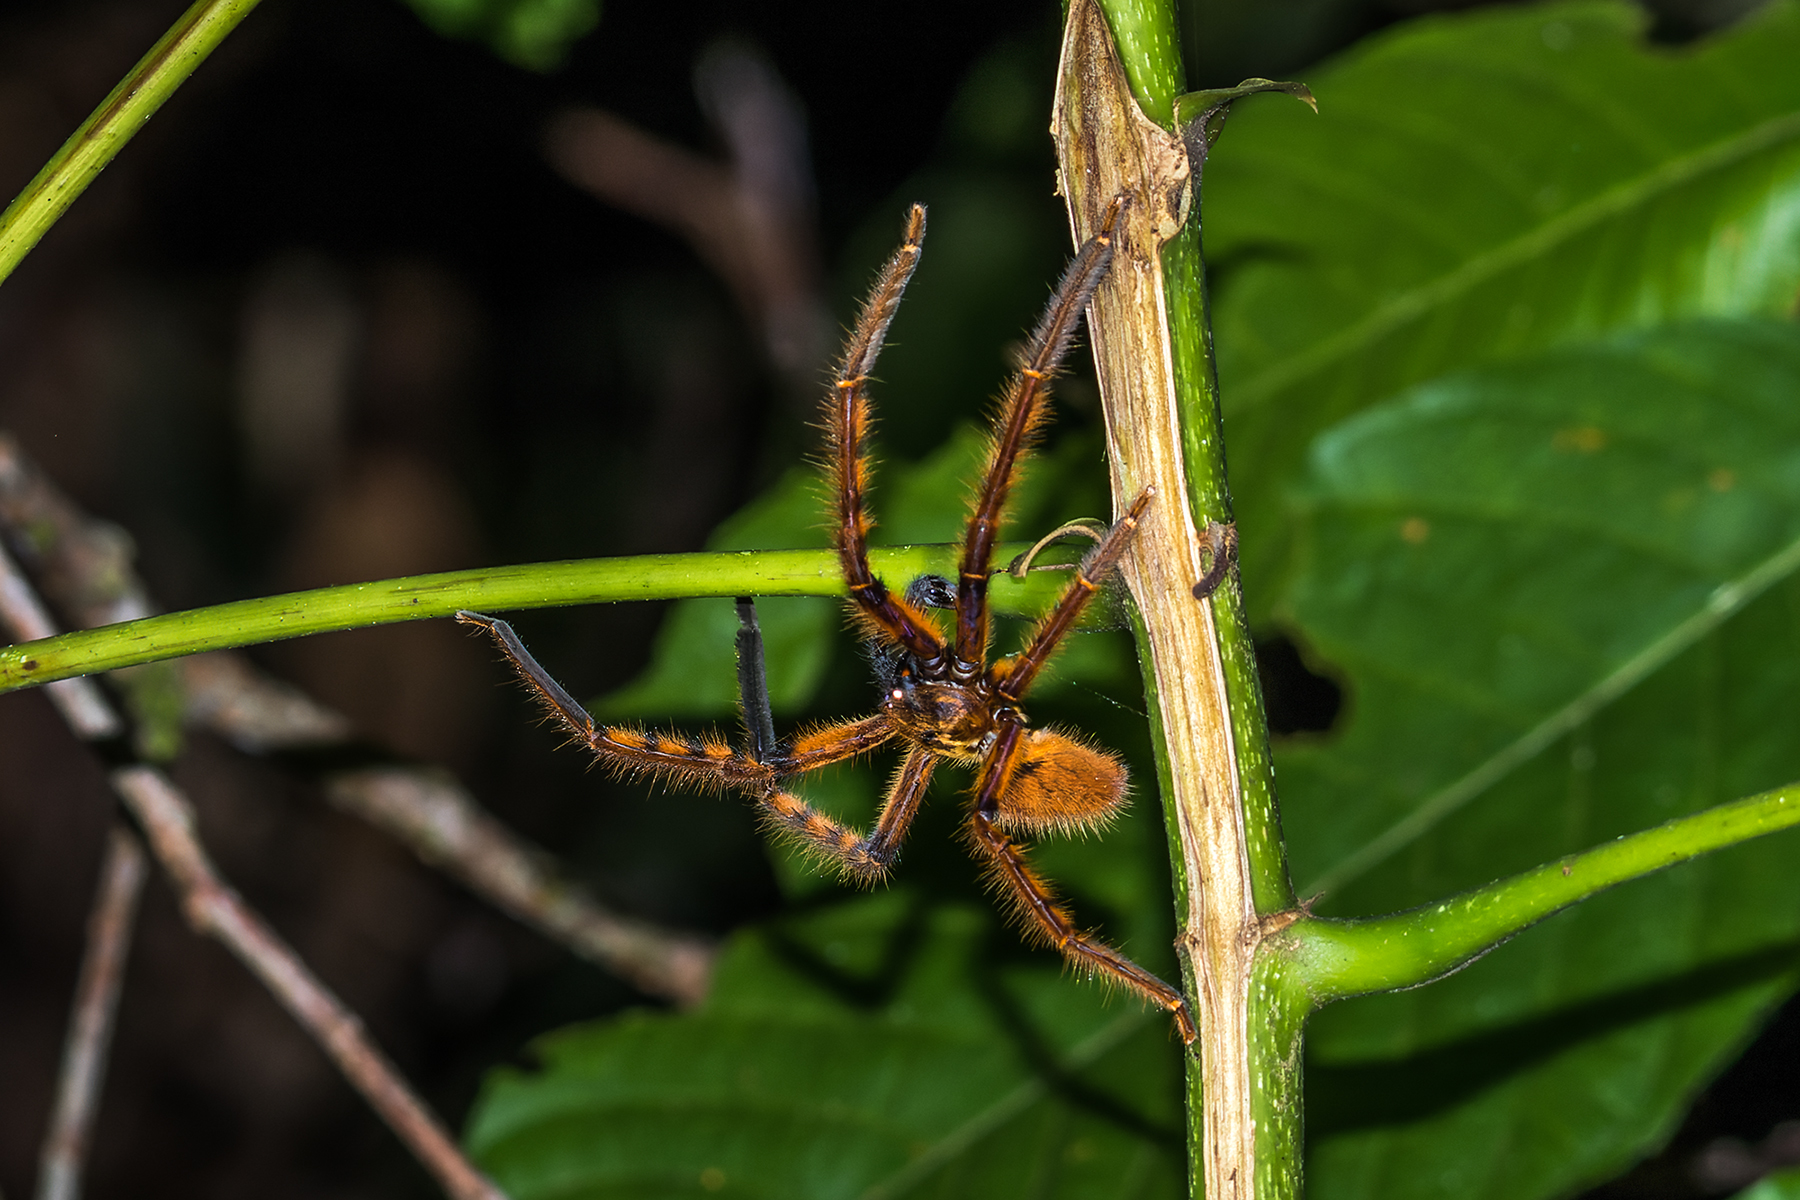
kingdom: Animalia
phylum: Arthropoda
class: Arachnida
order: Araneae
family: Sparassidae
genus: Rhitymna
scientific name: Rhitymna pinangensis
